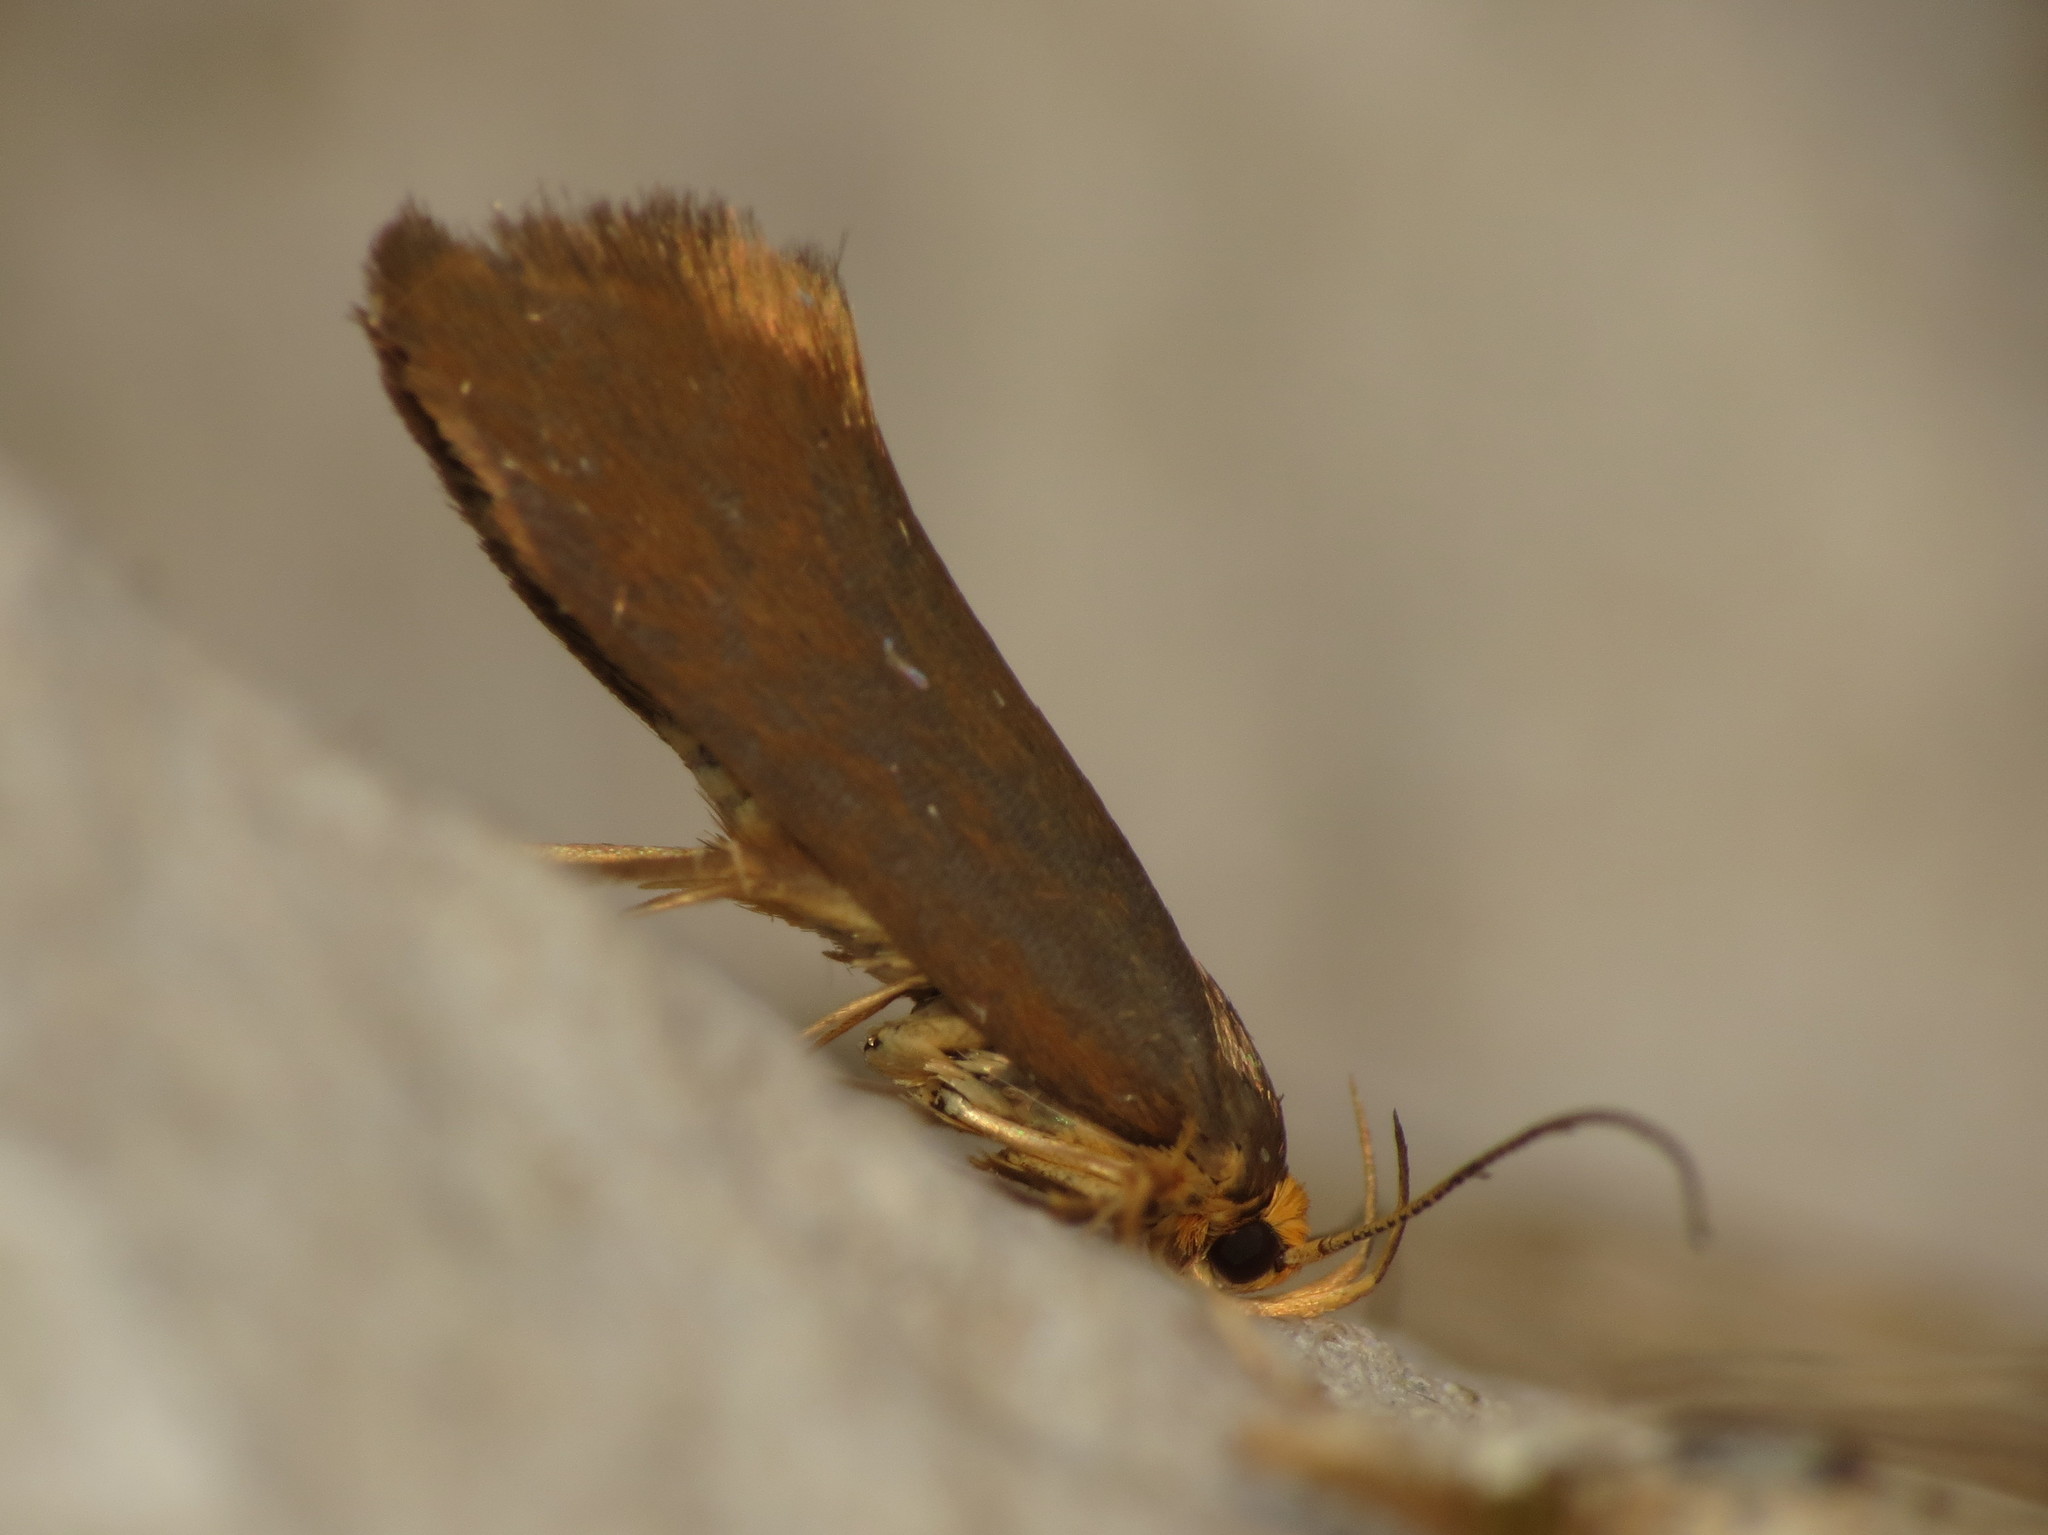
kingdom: Animalia
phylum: Arthropoda
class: Insecta
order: Lepidoptera
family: Oecophoridae
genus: Borkhausenia
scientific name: Borkhausenia Crassa unitella
